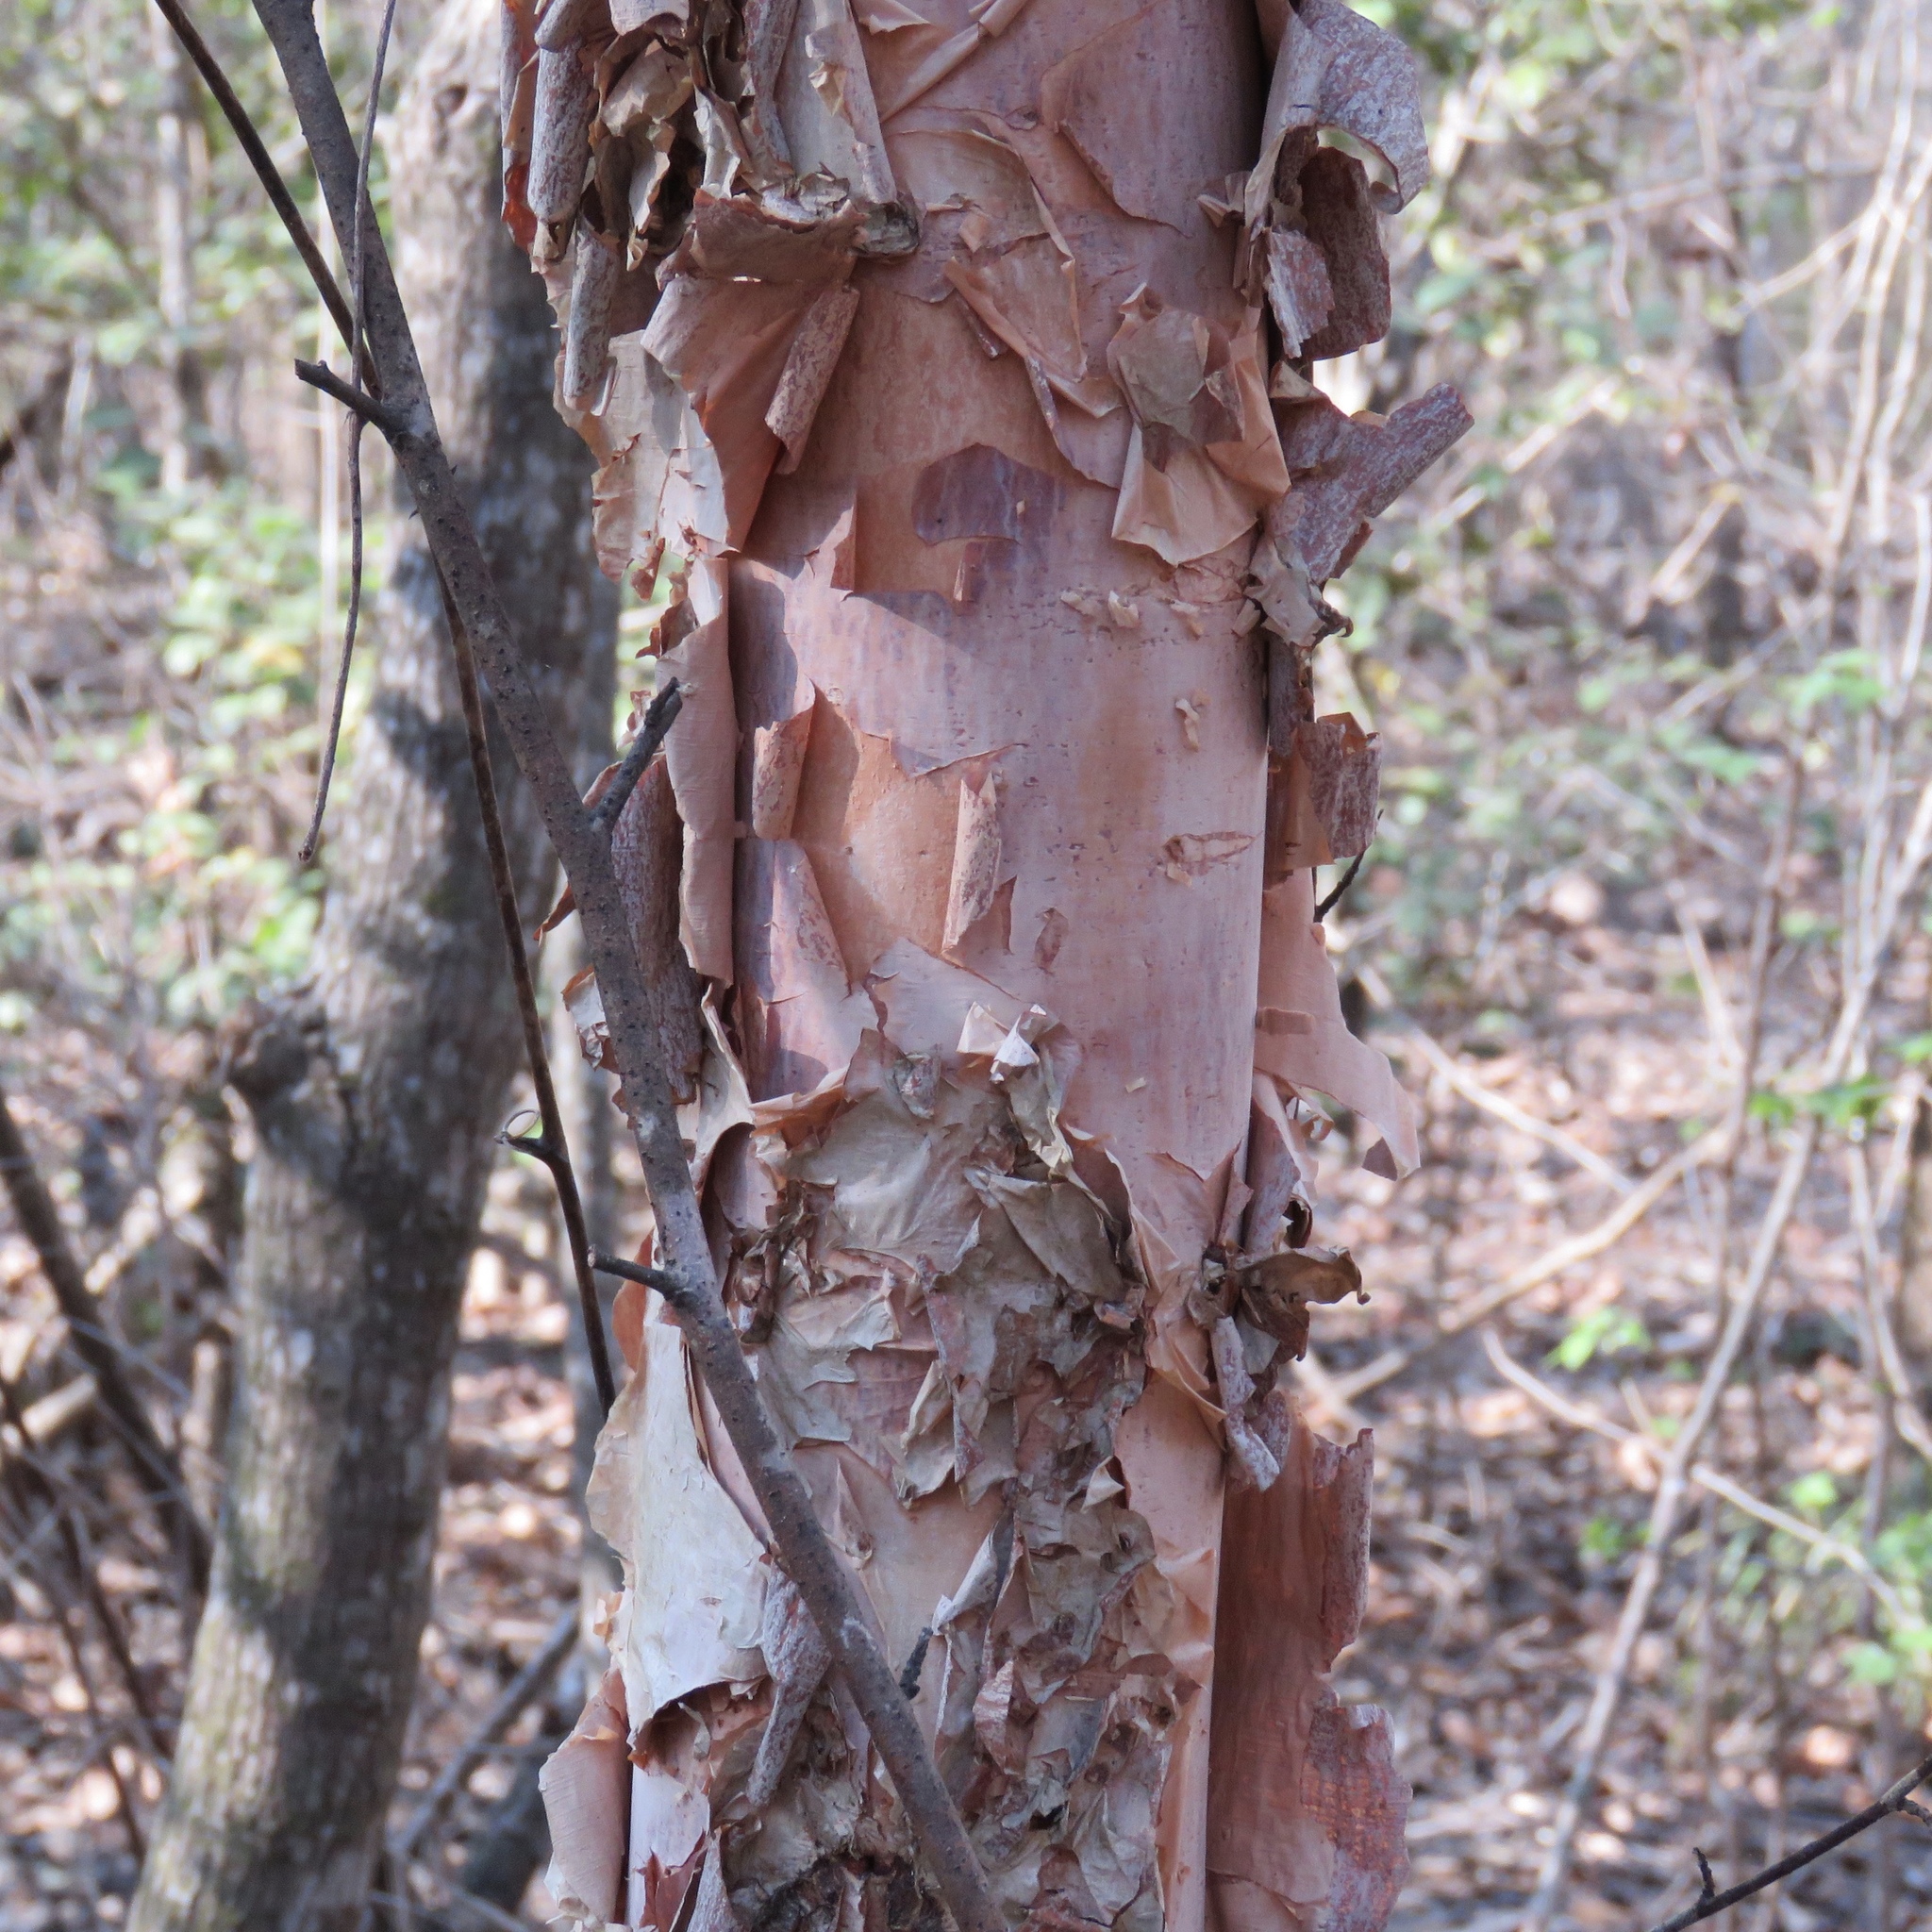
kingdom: Plantae
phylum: Tracheophyta
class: Magnoliopsida
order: Fagales
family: Betulaceae
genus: Betula
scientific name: Betula nigra
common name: Black birch
